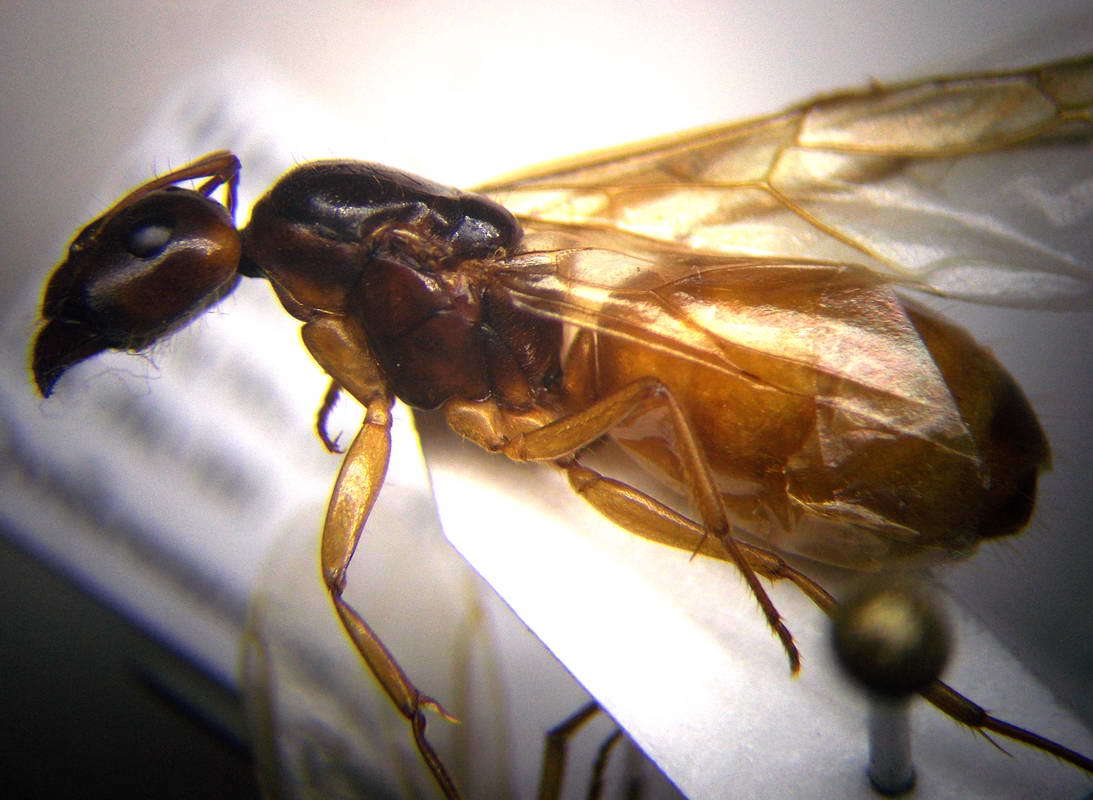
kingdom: Animalia
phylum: Arthropoda
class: Insecta
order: Hymenoptera
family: Formicidae
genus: Camponotus
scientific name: Camponotus fedtschenkoi
